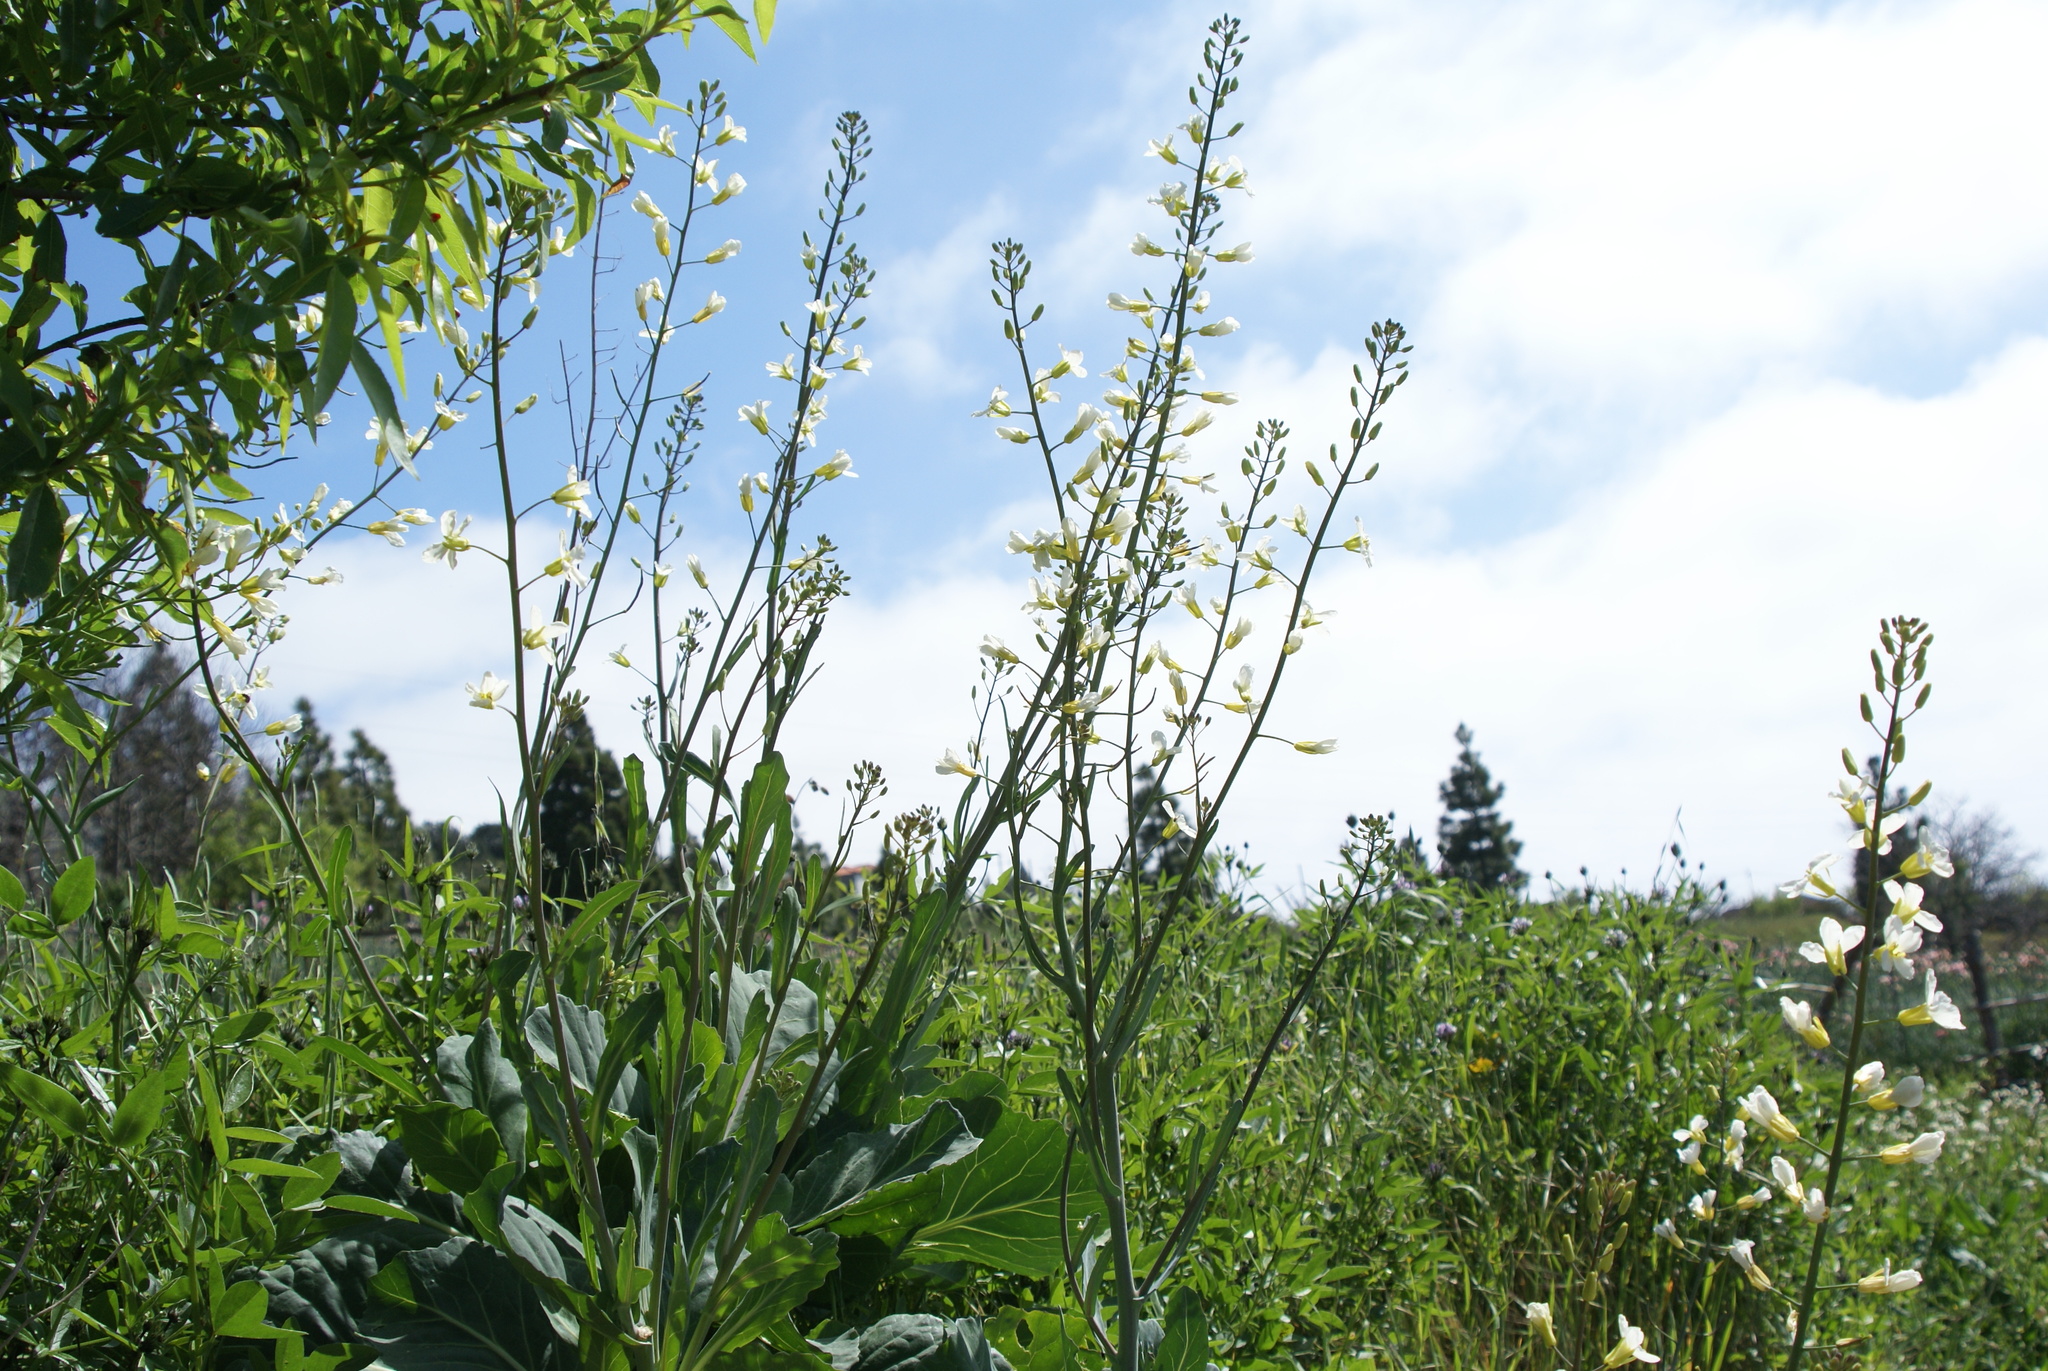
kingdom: Plantae
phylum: Tracheophyta
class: Magnoliopsida
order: Brassicales
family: Brassicaceae
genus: Brassica
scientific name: Brassica oleracea
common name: Cabbage
